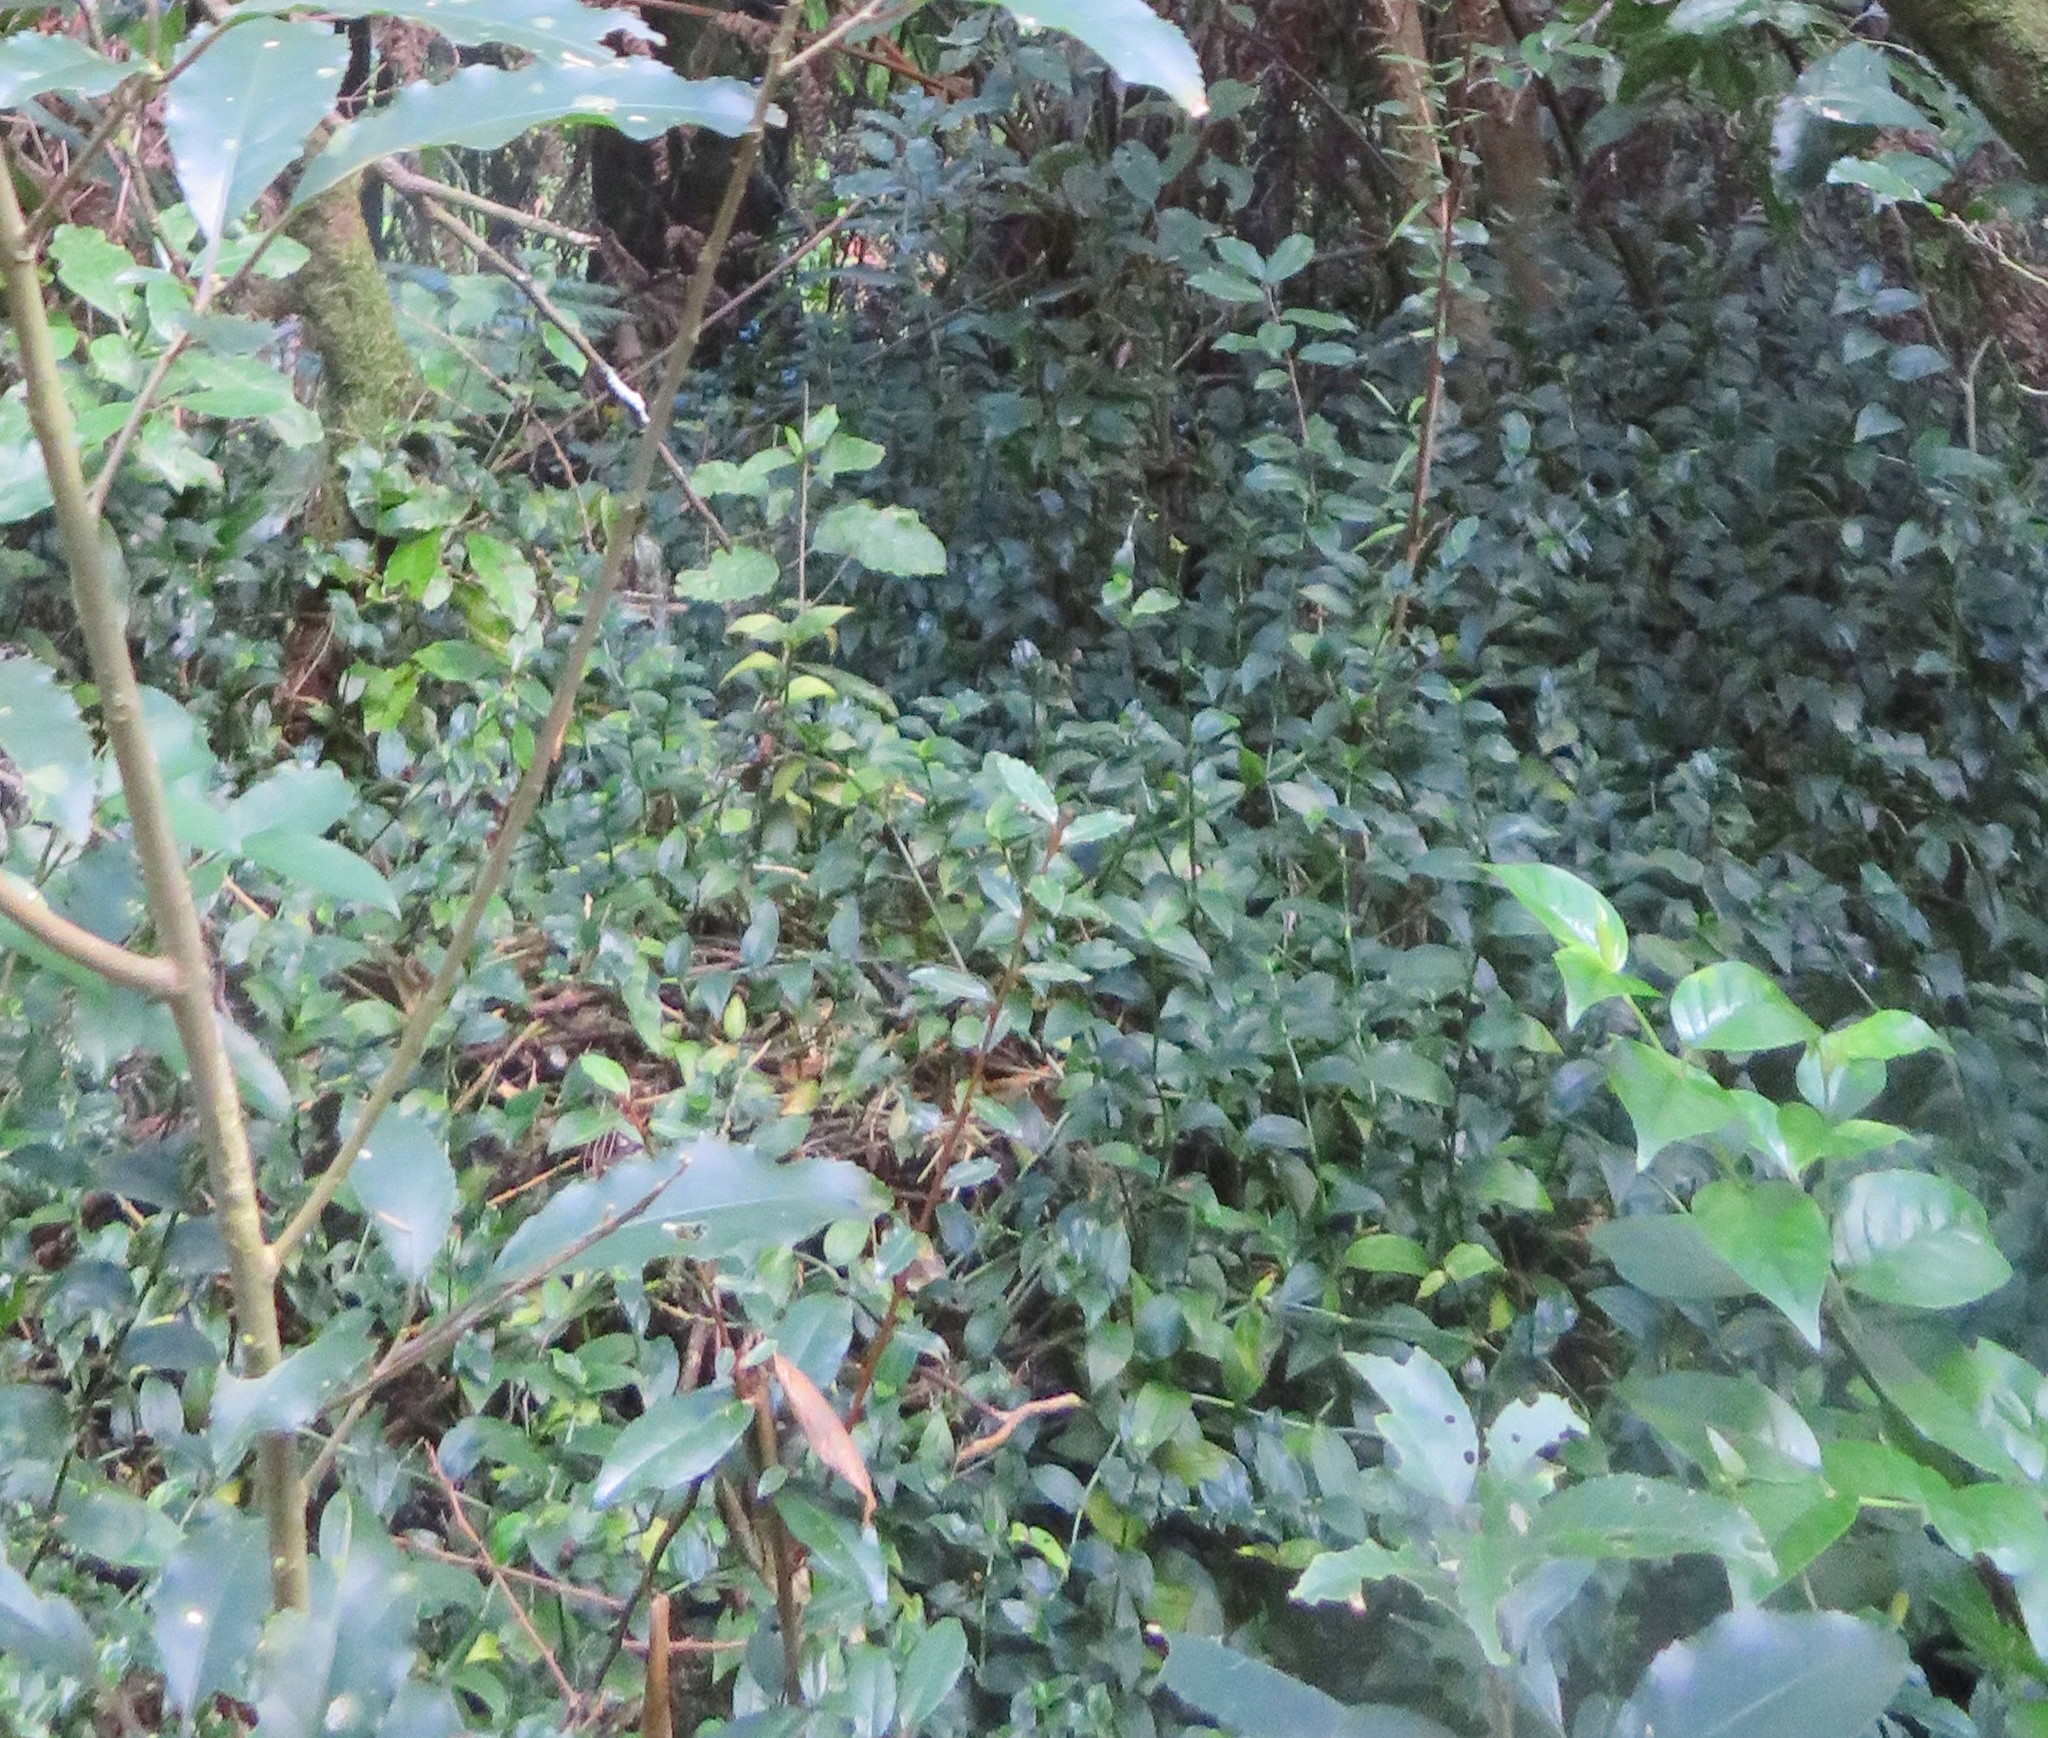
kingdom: Plantae
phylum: Tracheophyta
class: Magnoliopsida
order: Rosales
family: Elaeagnaceae
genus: Elaeagnus
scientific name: Elaeagnus reflexa
